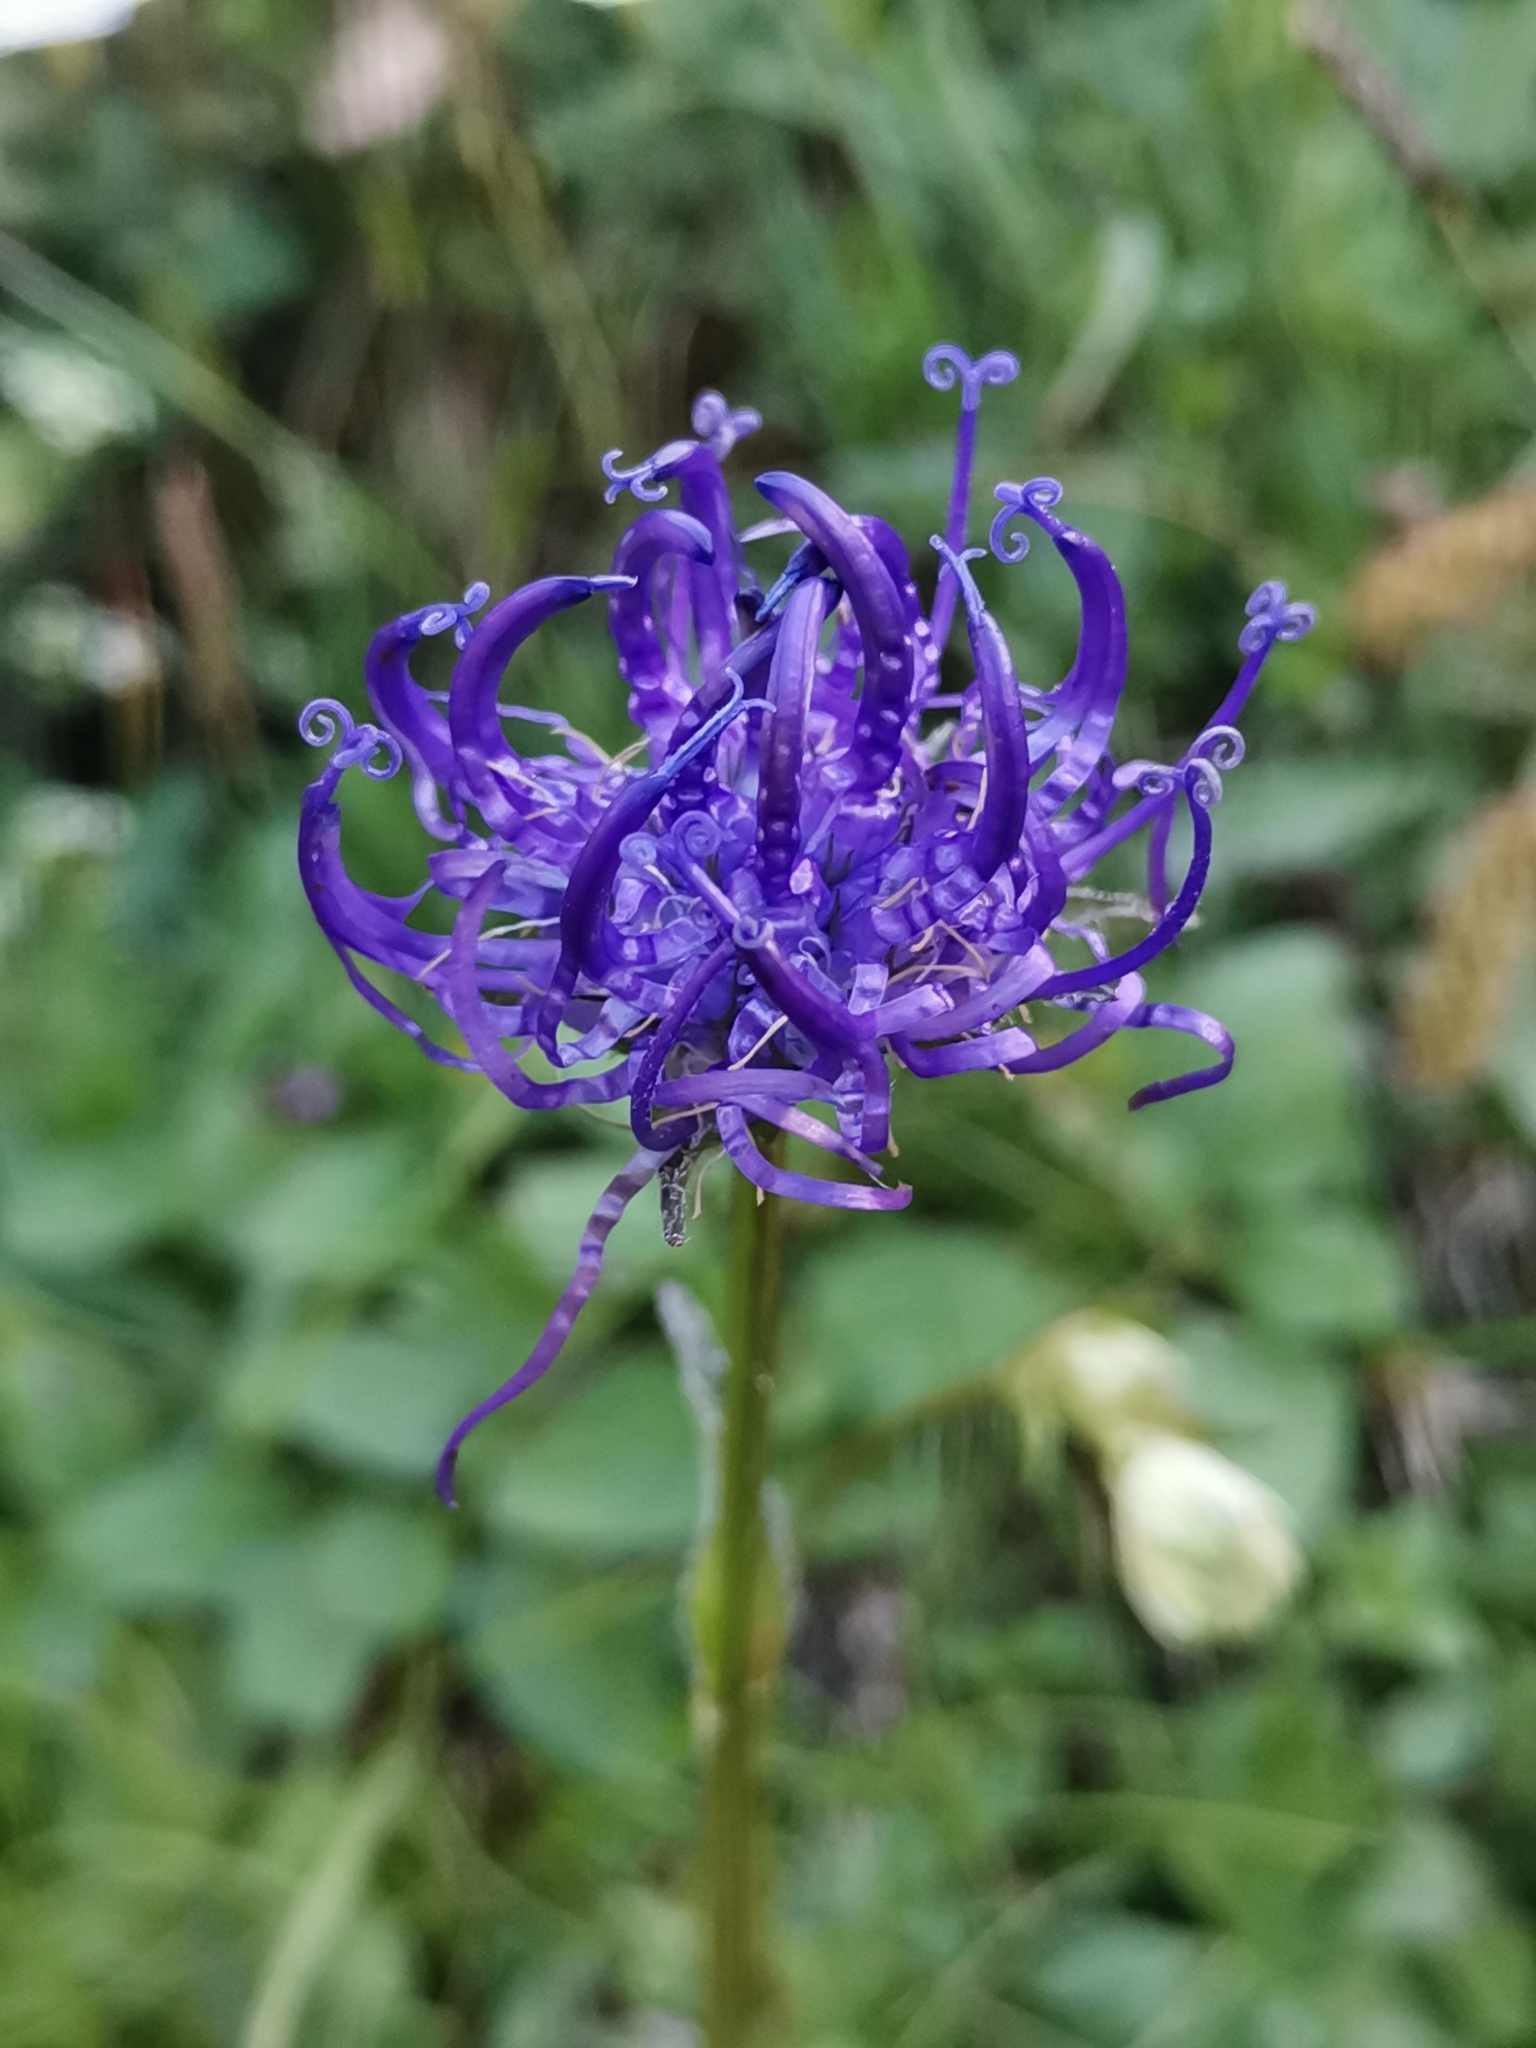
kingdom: Plantae
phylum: Tracheophyta
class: Magnoliopsida
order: Asterales
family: Campanulaceae
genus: Phyteuma
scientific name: Phyteuma orbiculare
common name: Round-headed rampion
